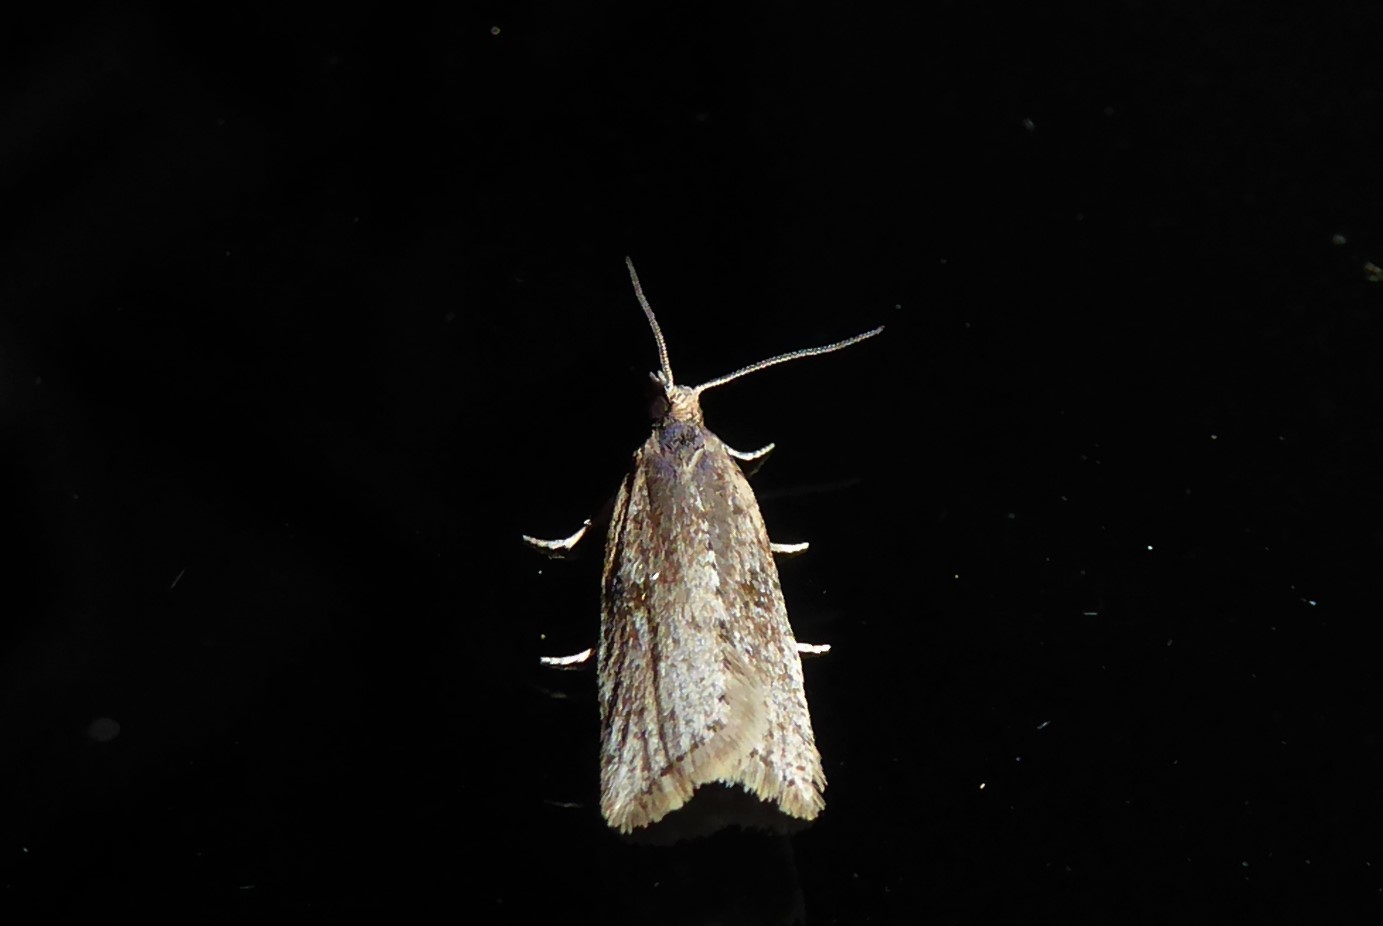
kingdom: Animalia
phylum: Arthropoda
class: Insecta
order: Lepidoptera
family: Tortricidae
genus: Capua
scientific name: Capua semiferana
